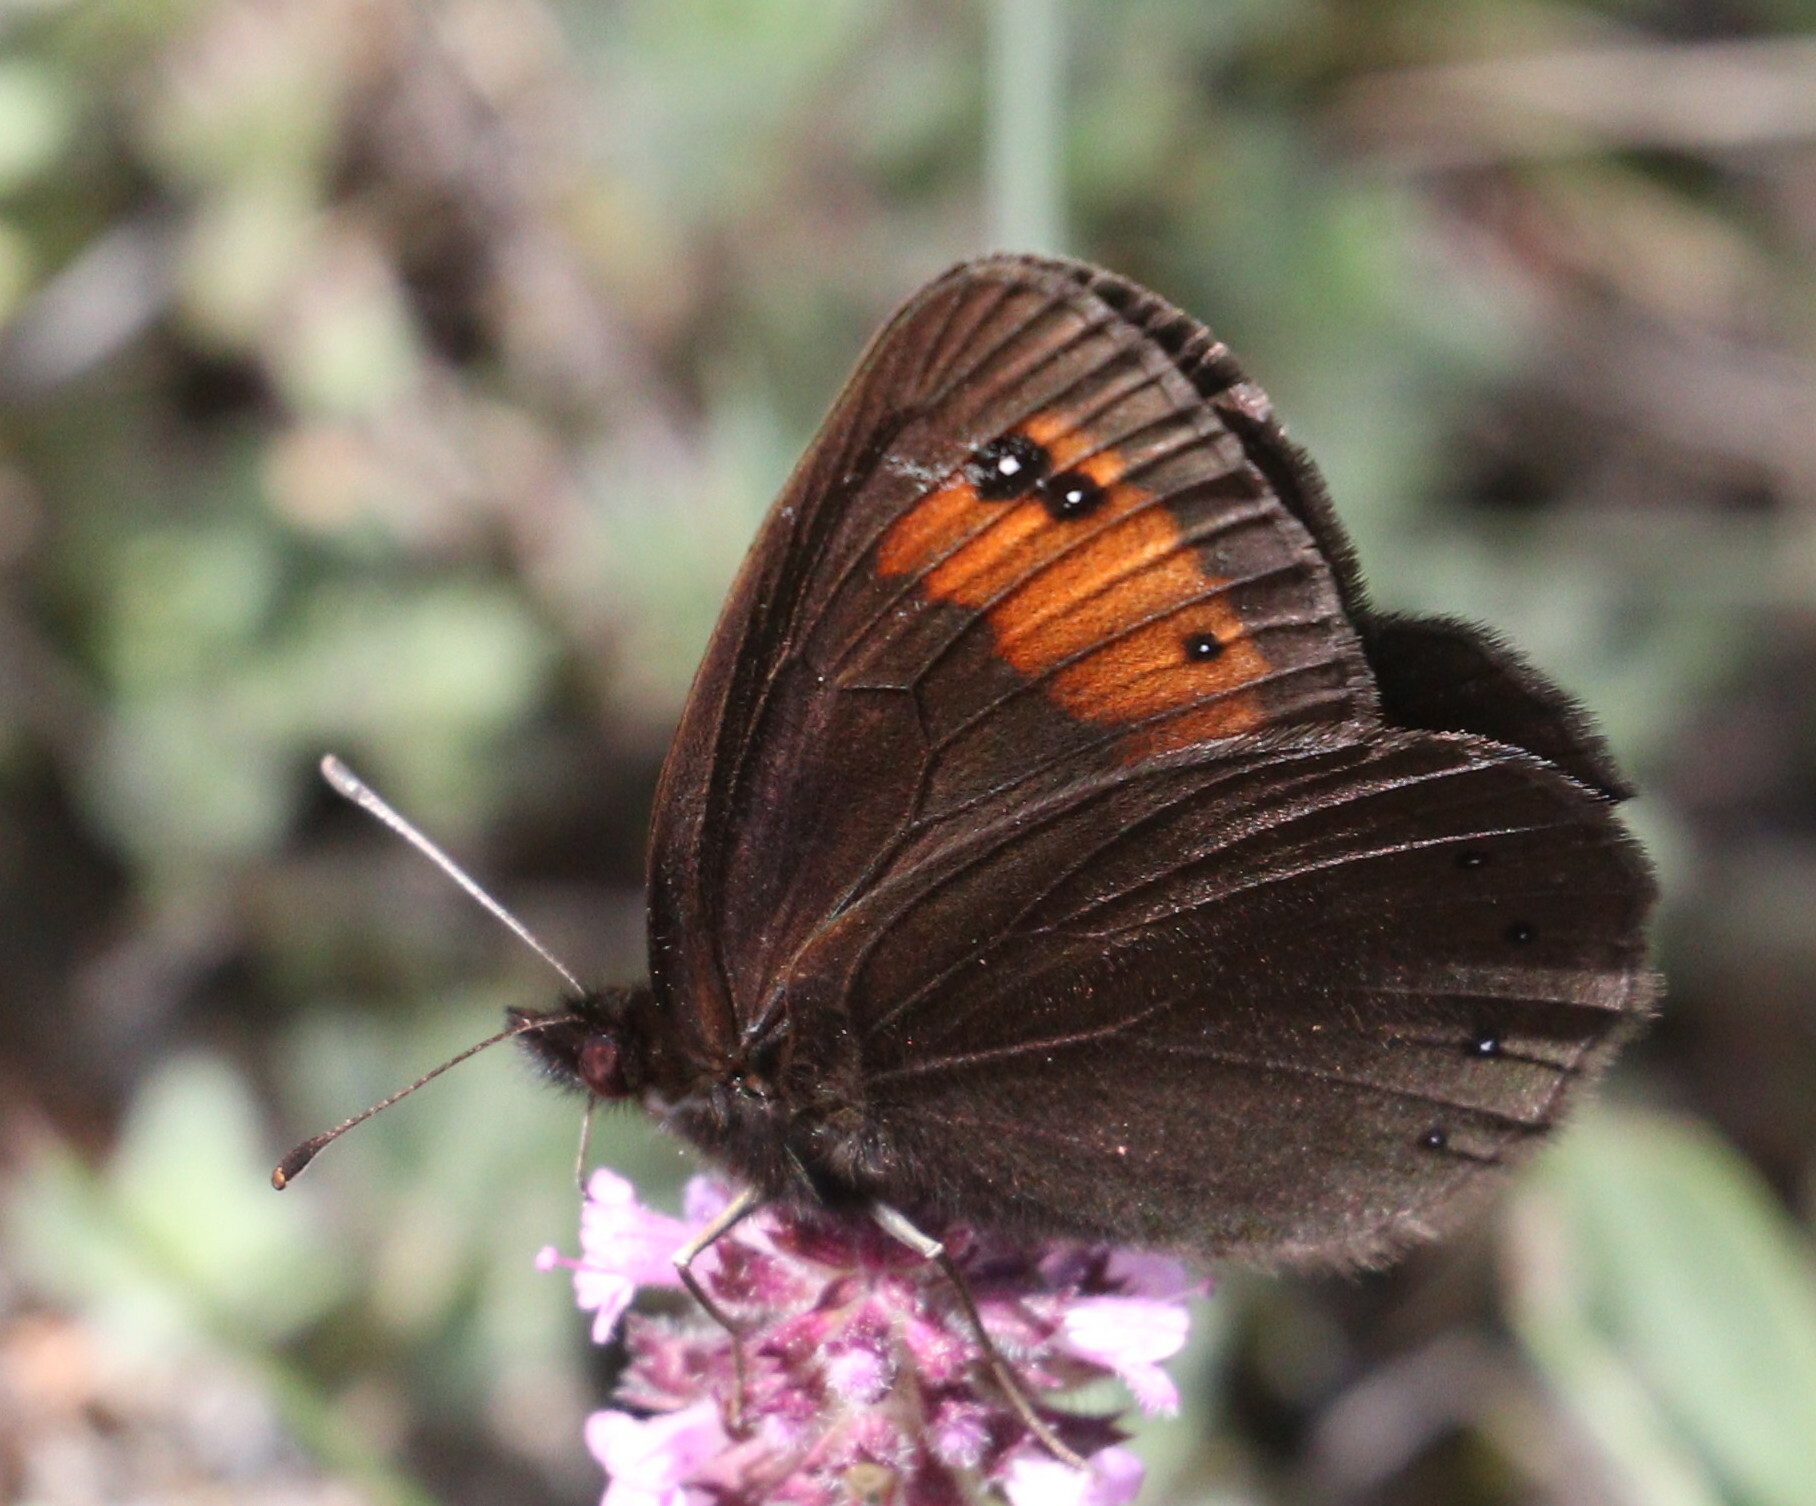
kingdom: Animalia
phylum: Arthropoda
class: Insecta
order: Lepidoptera
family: Nymphalidae
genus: Erebia
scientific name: Erebia meolans
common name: Piedmont ringlet
